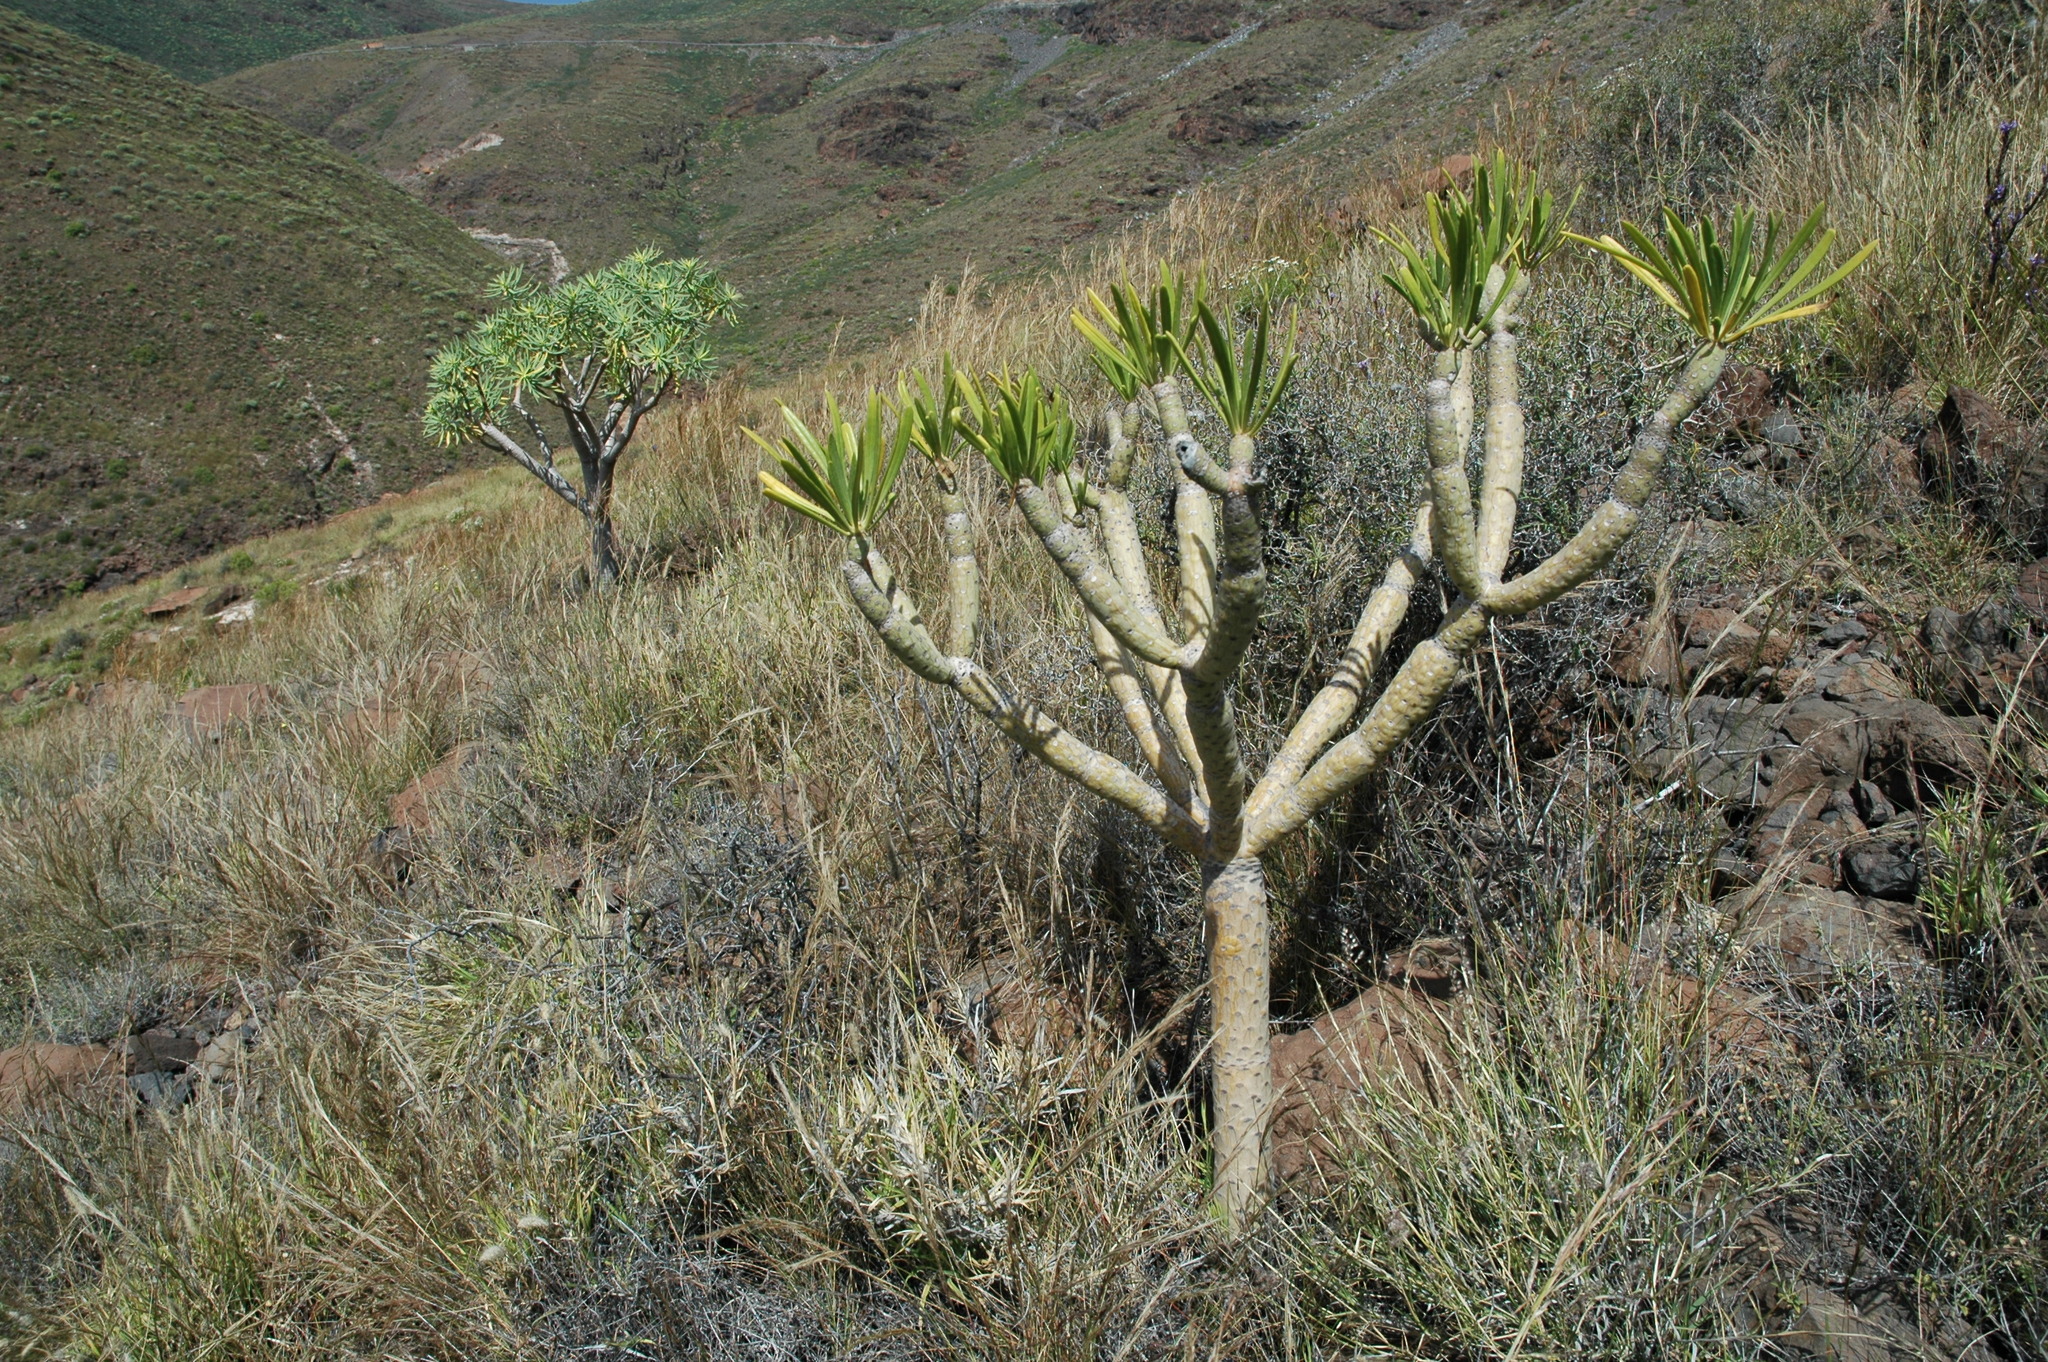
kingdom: Plantae
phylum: Tracheophyta
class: Magnoliopsida
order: Asterales
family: Asteraceae
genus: Kleinia
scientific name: Kleinia neriifolia
